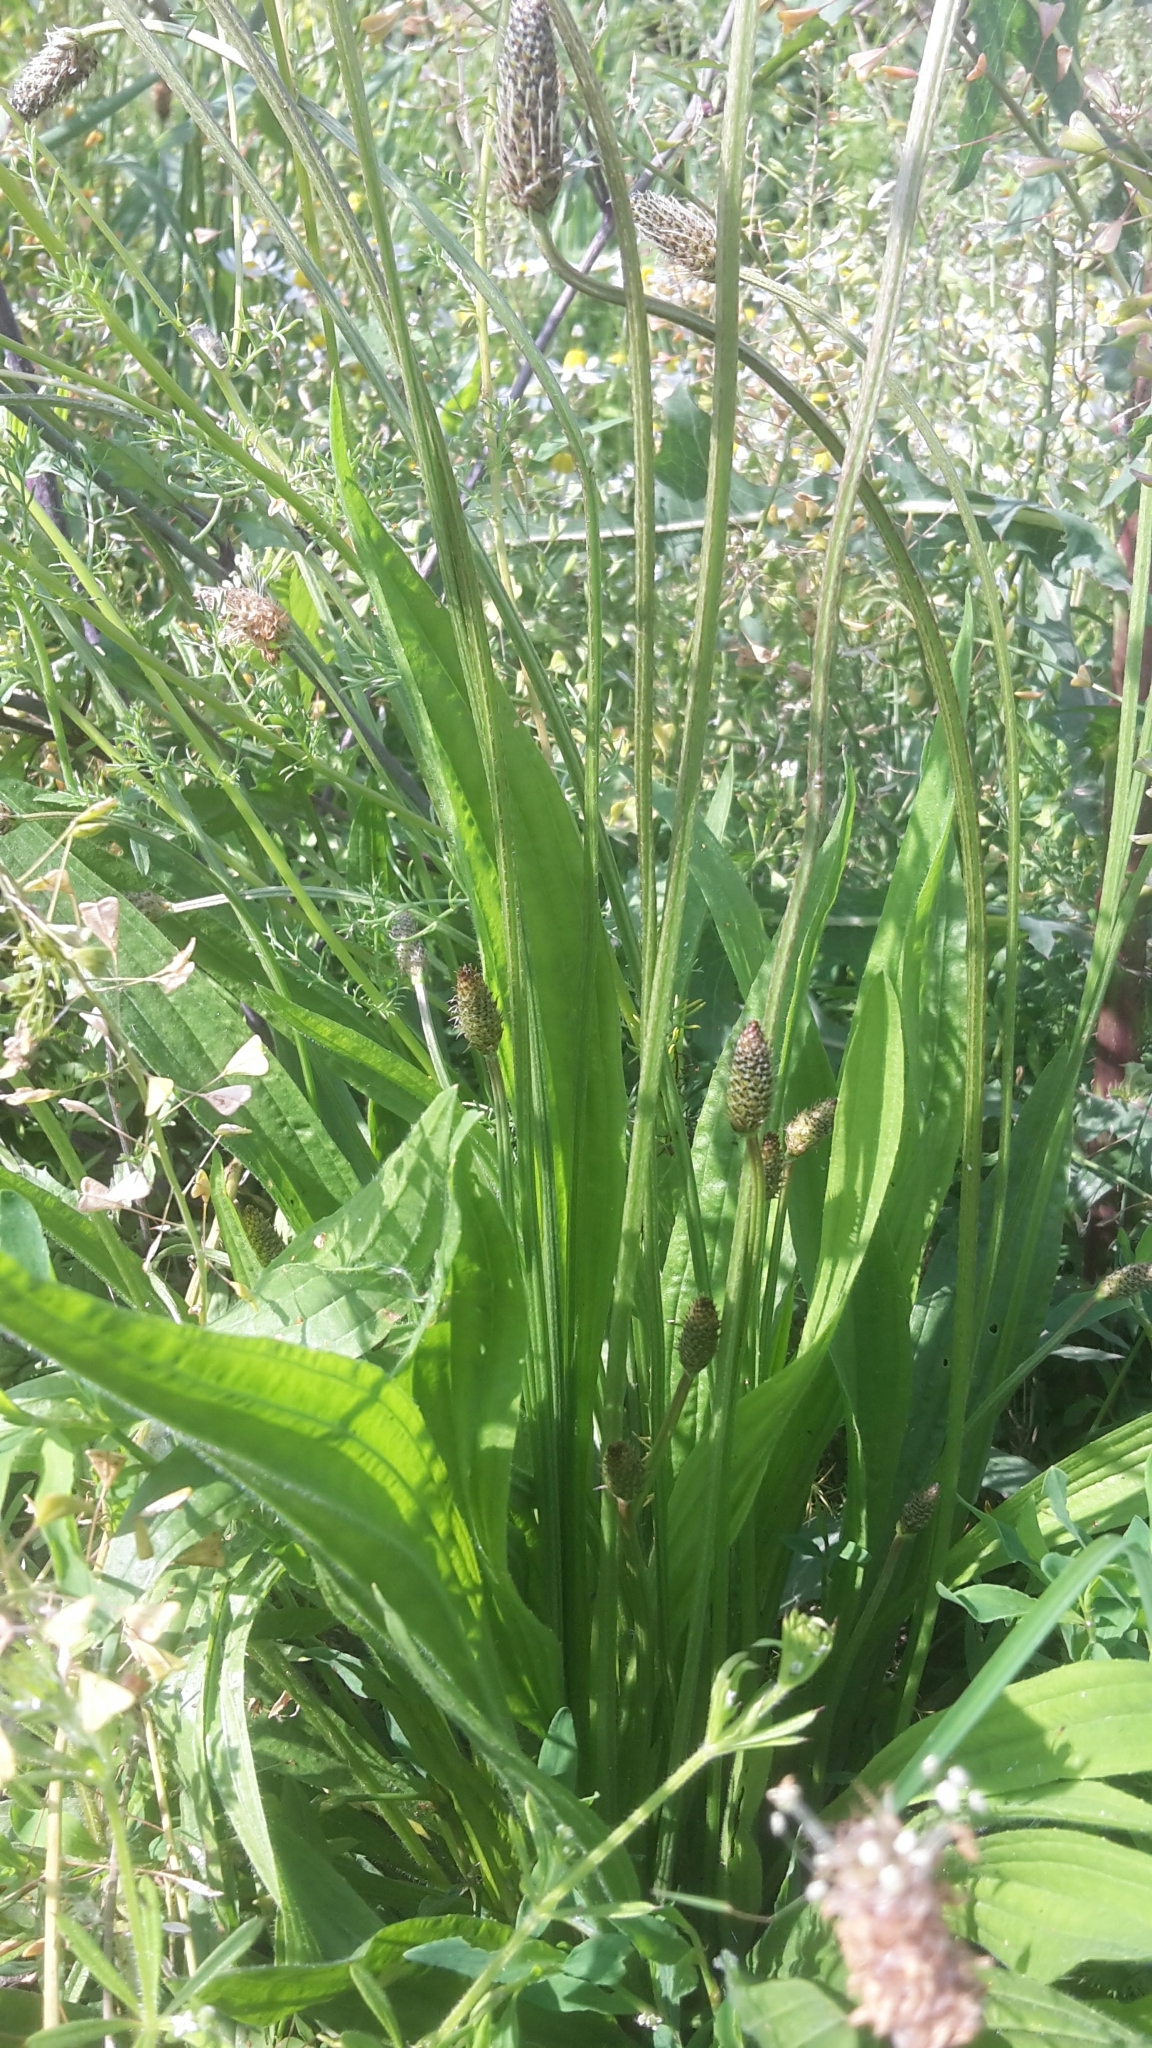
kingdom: Plantae
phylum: Tracheophyta
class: Magnoliopsida
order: Lamiales
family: Plantaginaceae
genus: Plantago
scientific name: Plantago lanceolata
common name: Ribwort plantain
